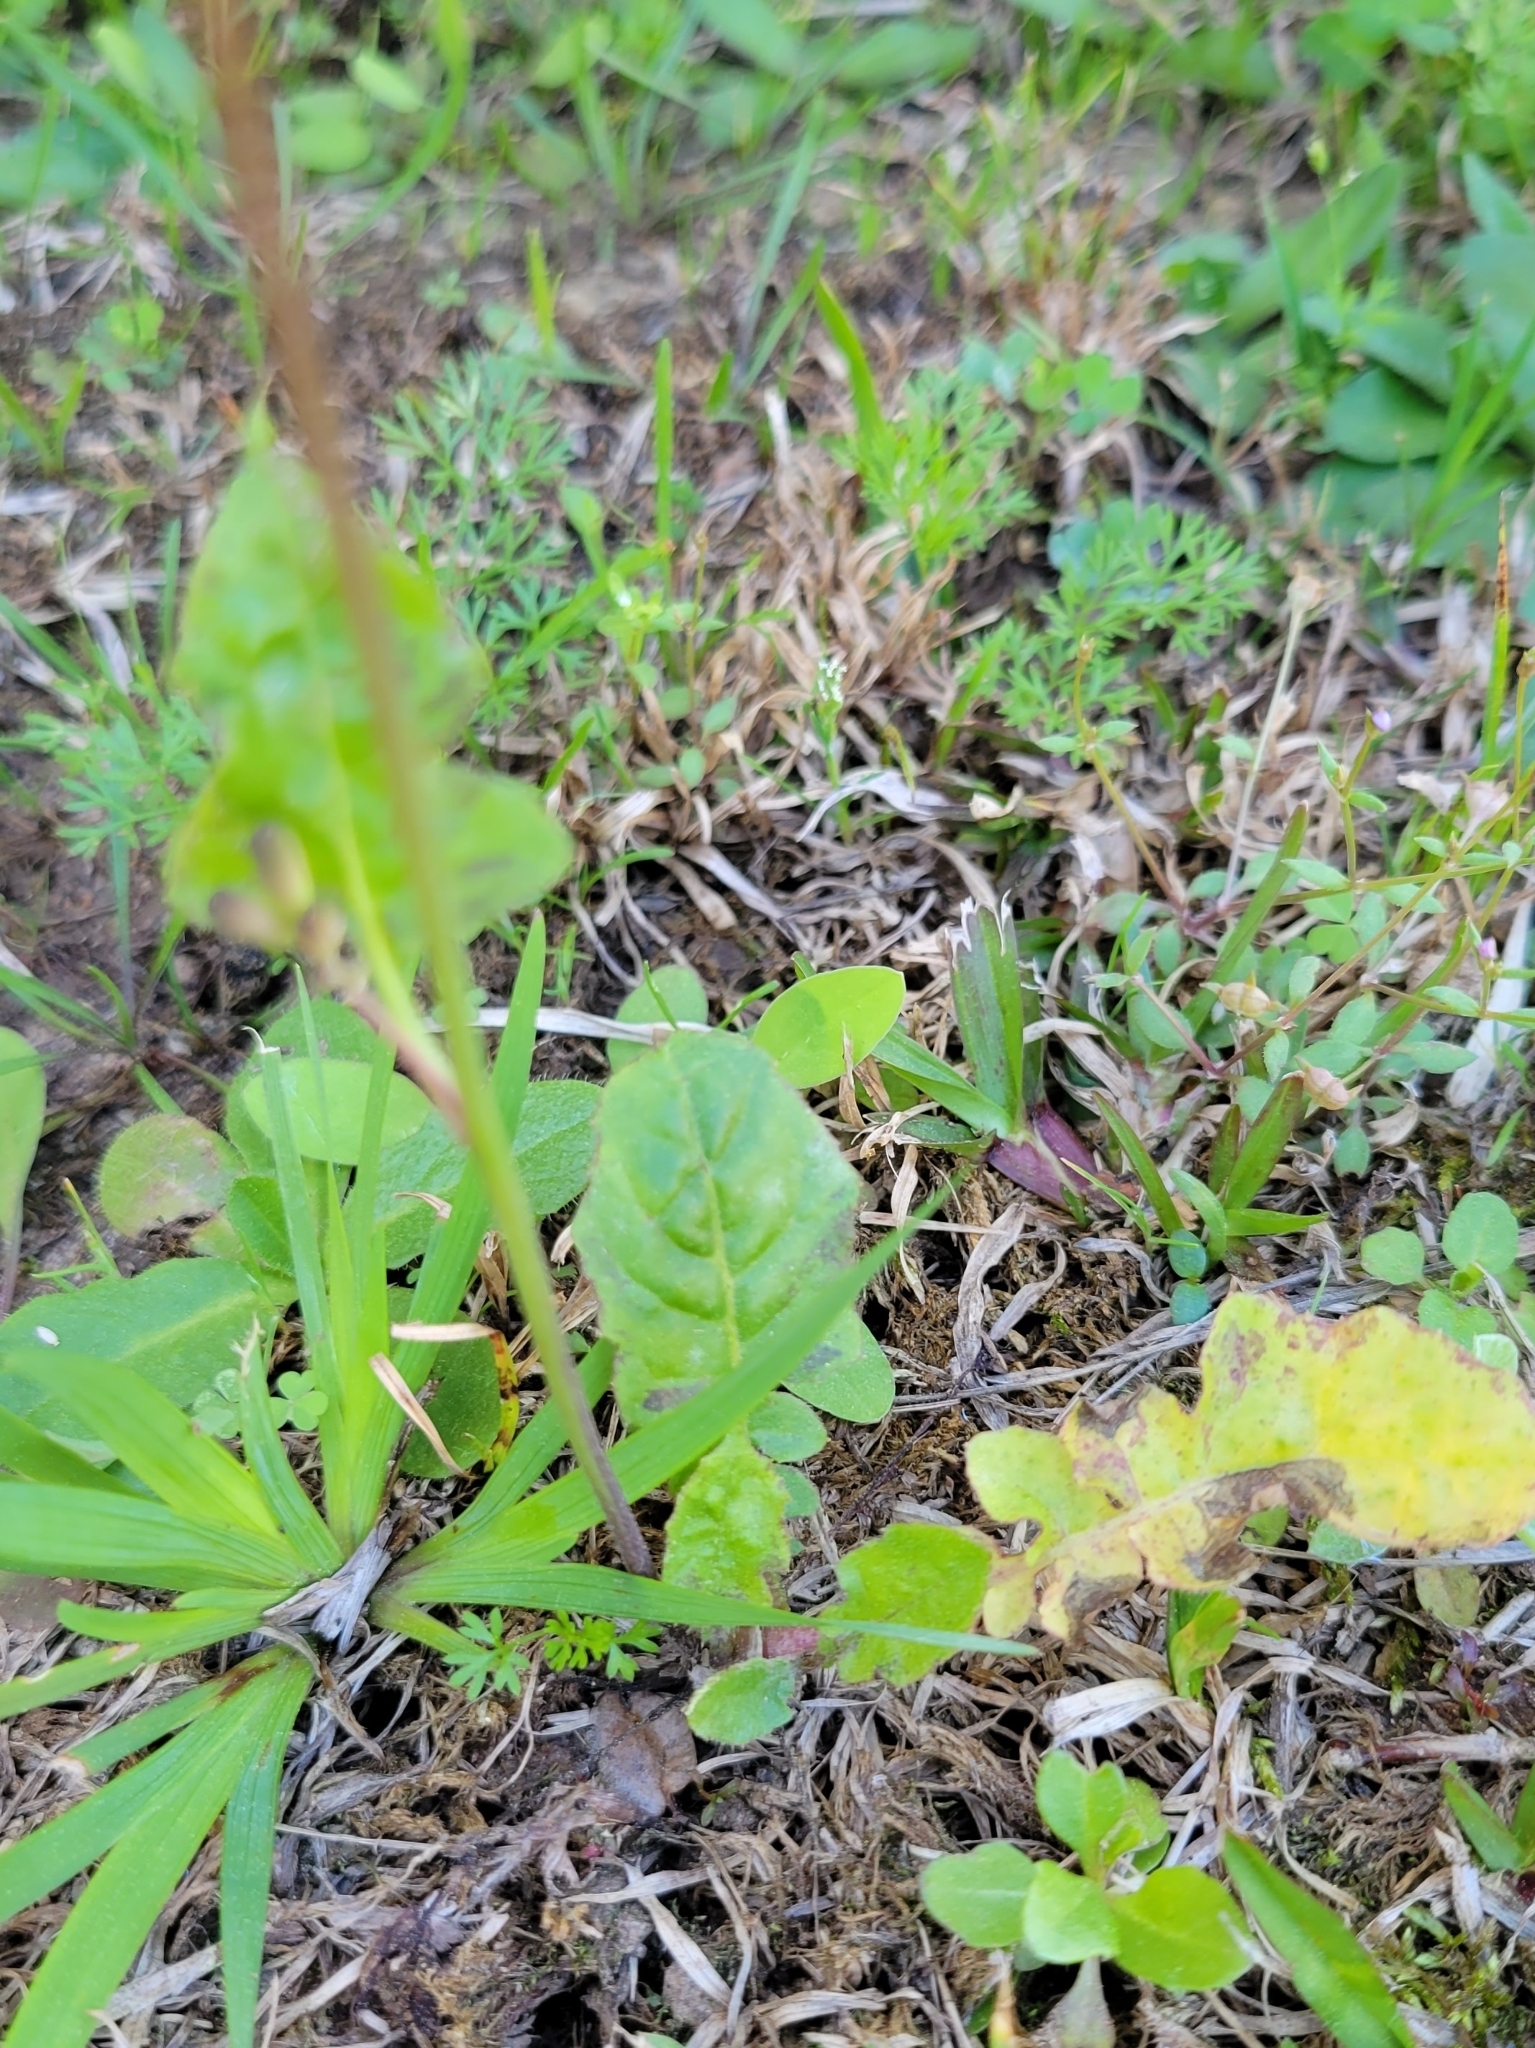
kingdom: Plantae
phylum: Tracheophyta
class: Magnoliopsida
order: Asterales
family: Asteraceae
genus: Youngia
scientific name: Youngia japonica
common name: Oriental false hawksbeard
